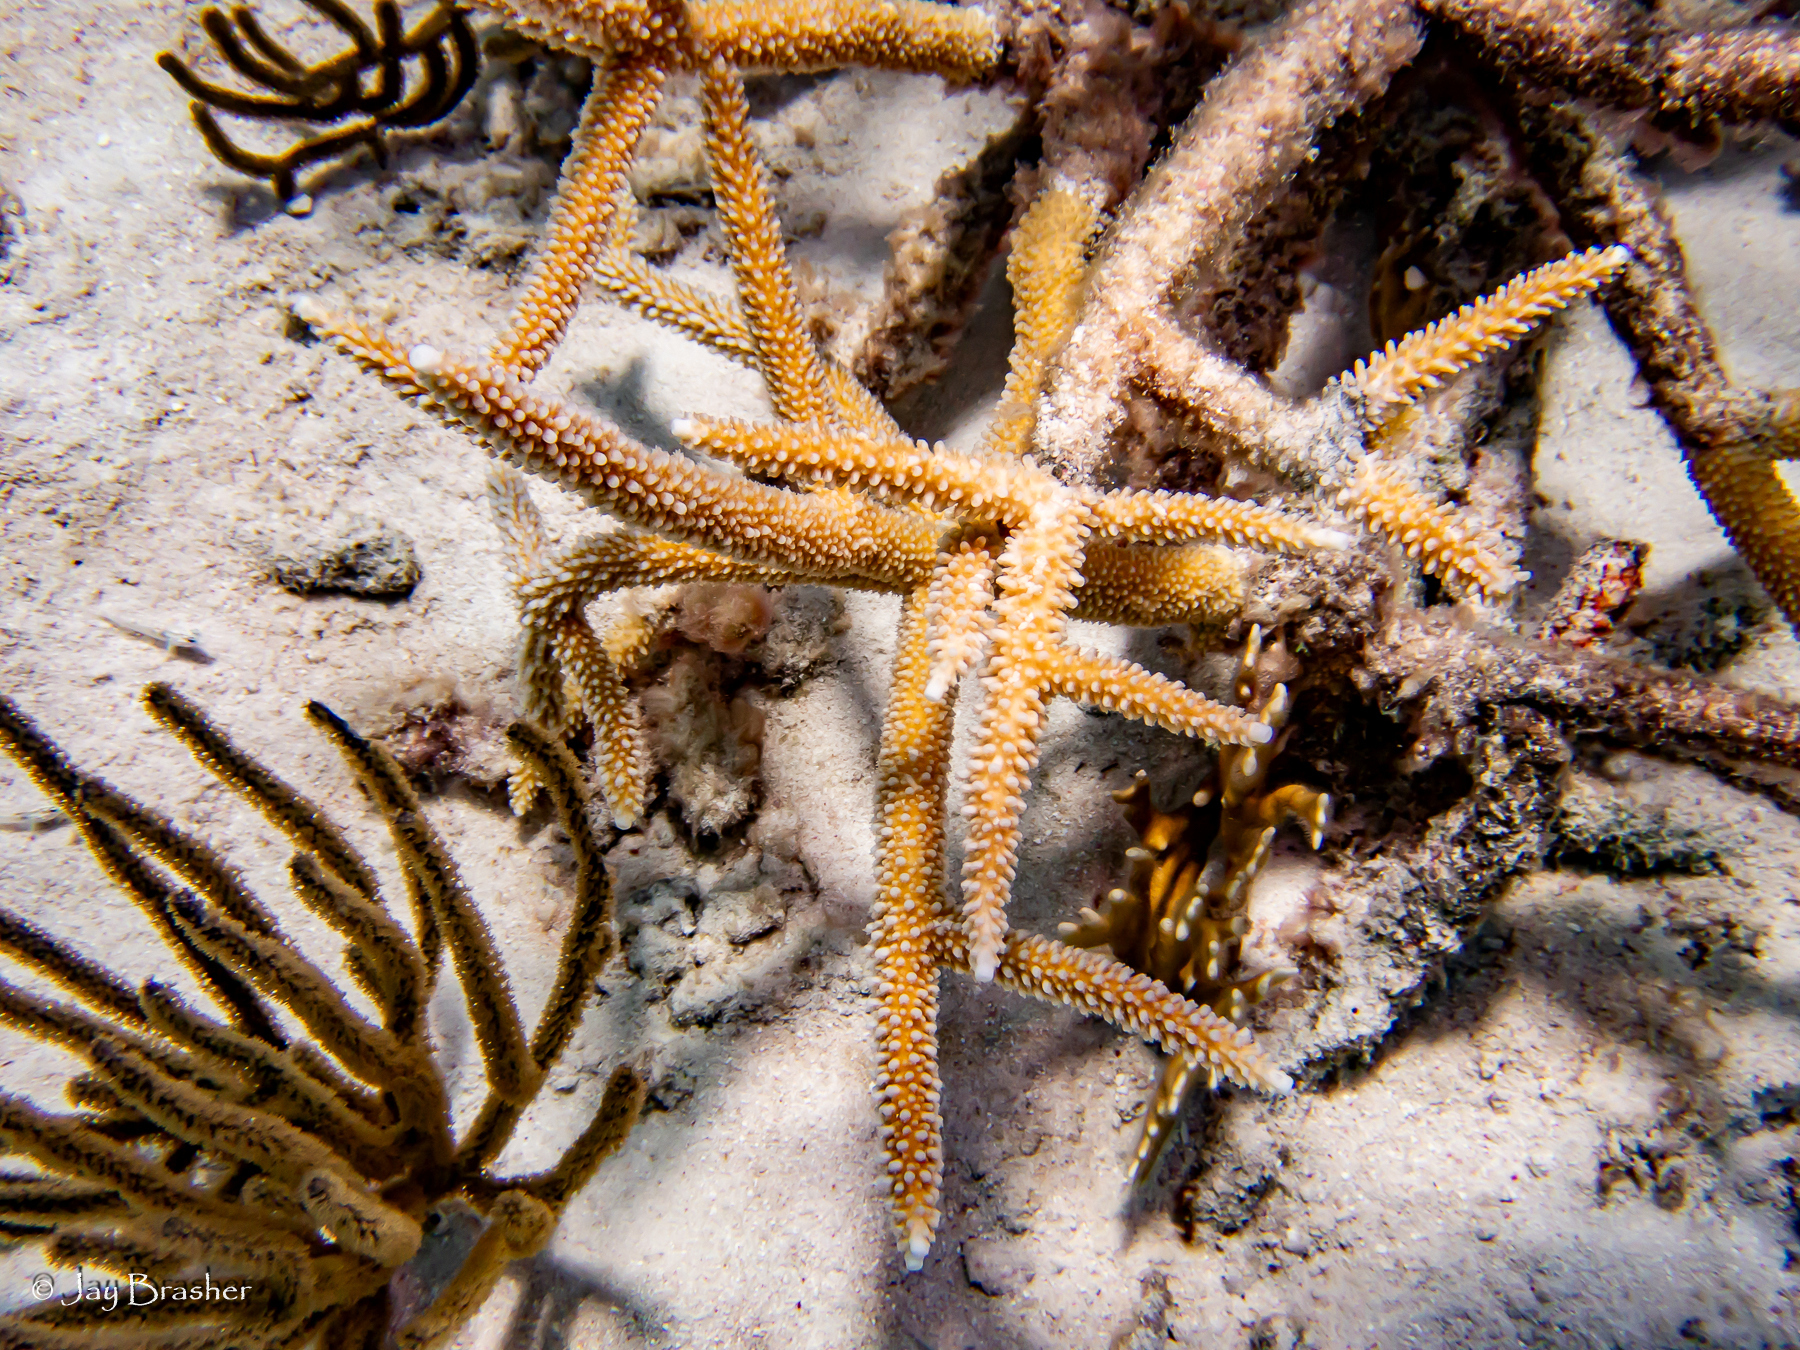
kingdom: Animalia
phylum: Cnidaria
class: Anthozoa
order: Scleractinia
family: Acroporidae
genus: Acropora
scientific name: Acropora cervicornis
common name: Staghorn coral
